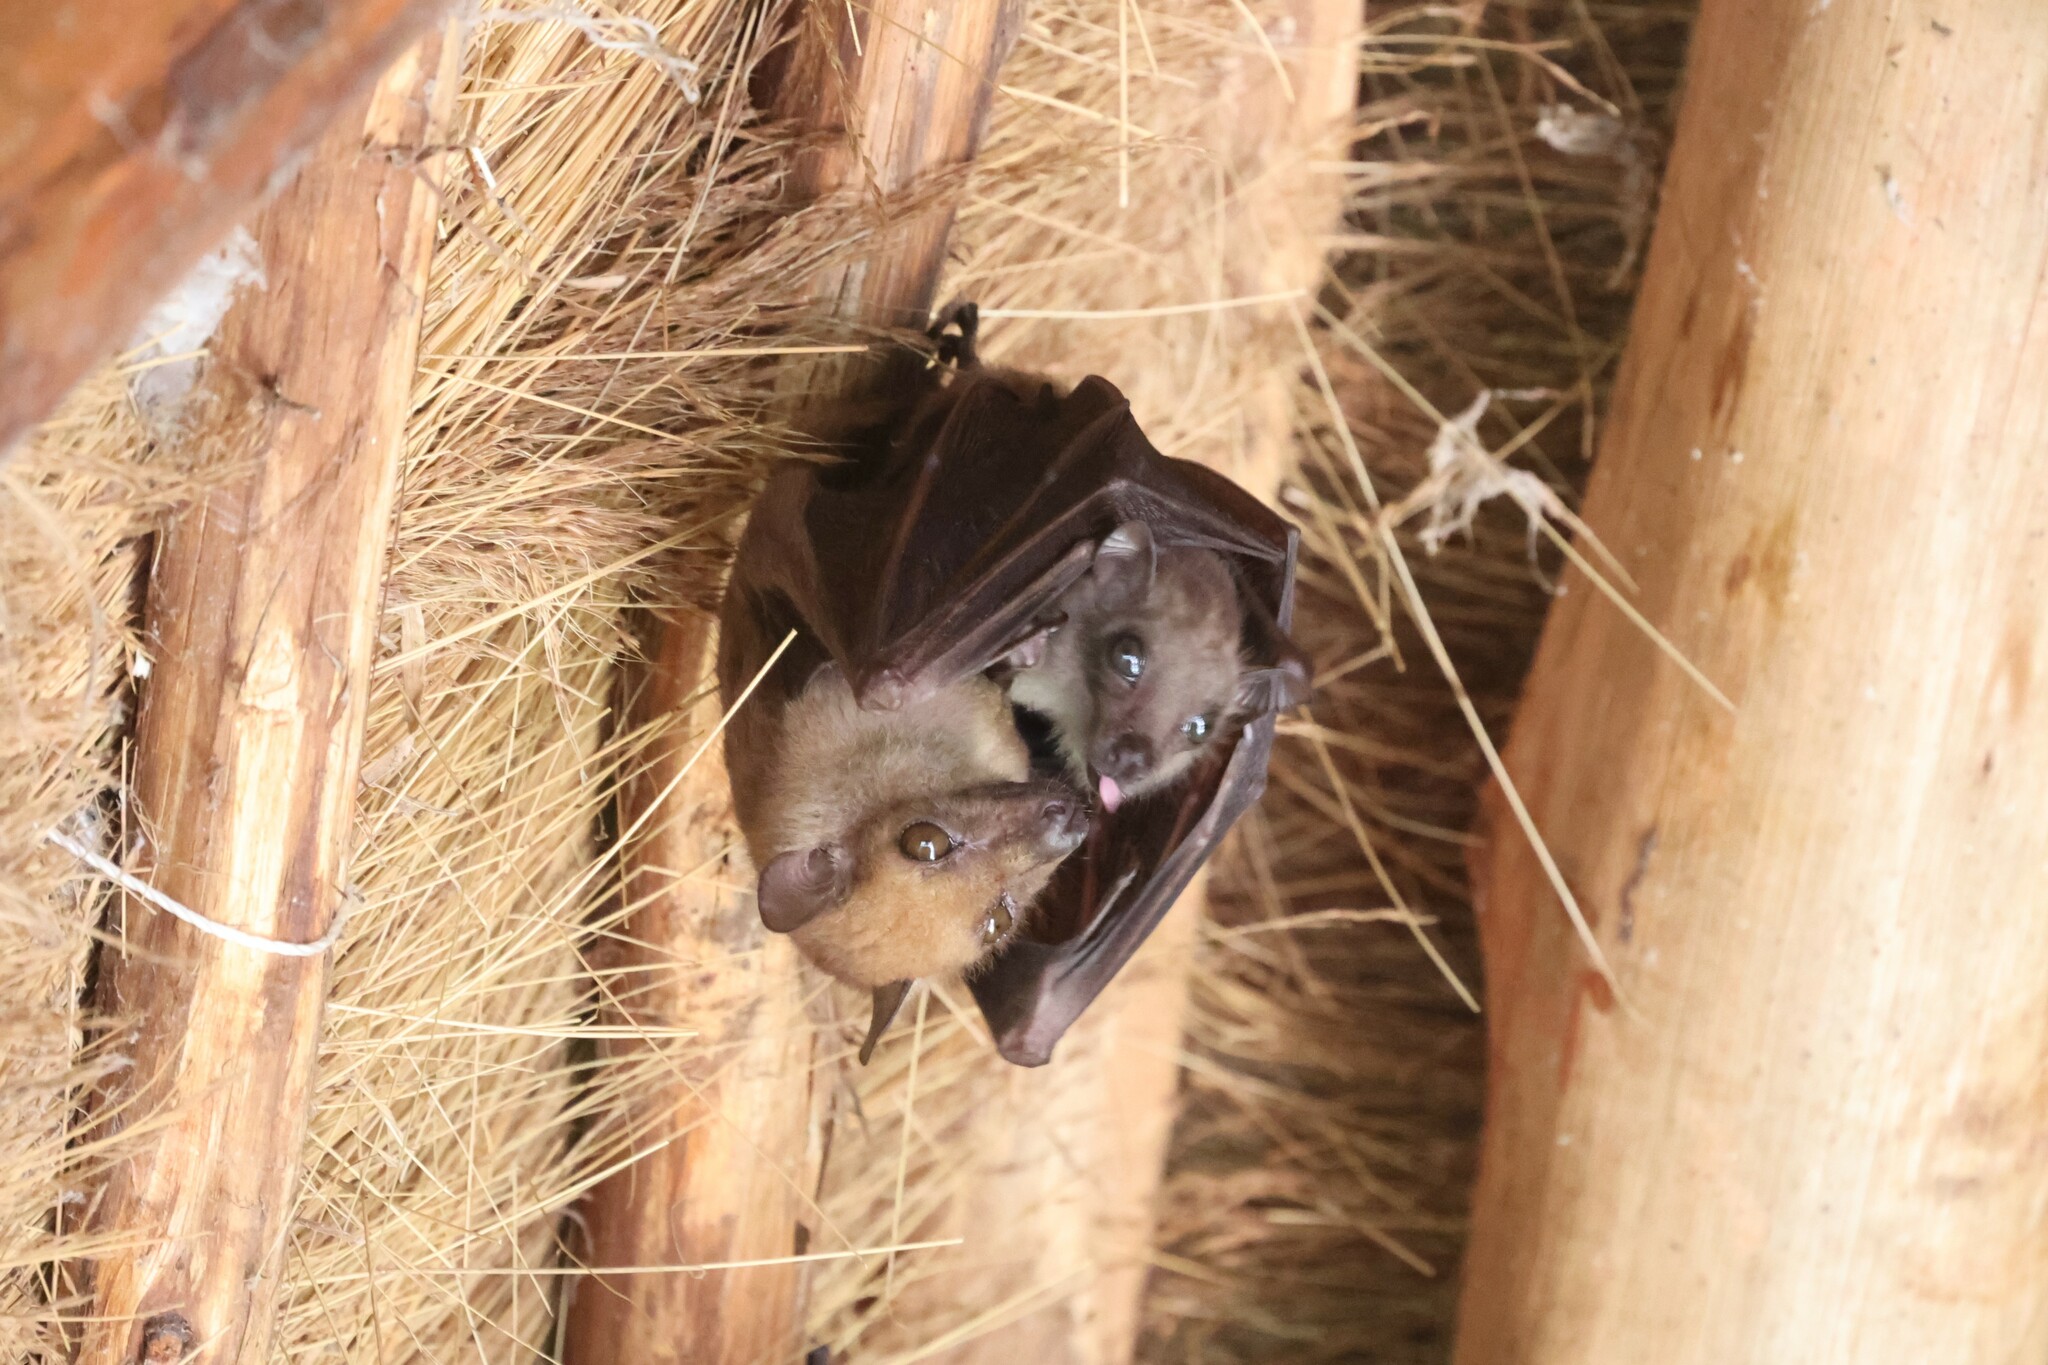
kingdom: Animalia
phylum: Chordata
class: Mammalia
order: Chiroptera
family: Pteropodidae
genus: Myonycteris
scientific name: Myonycteris angolensis
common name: Angolan rousette
